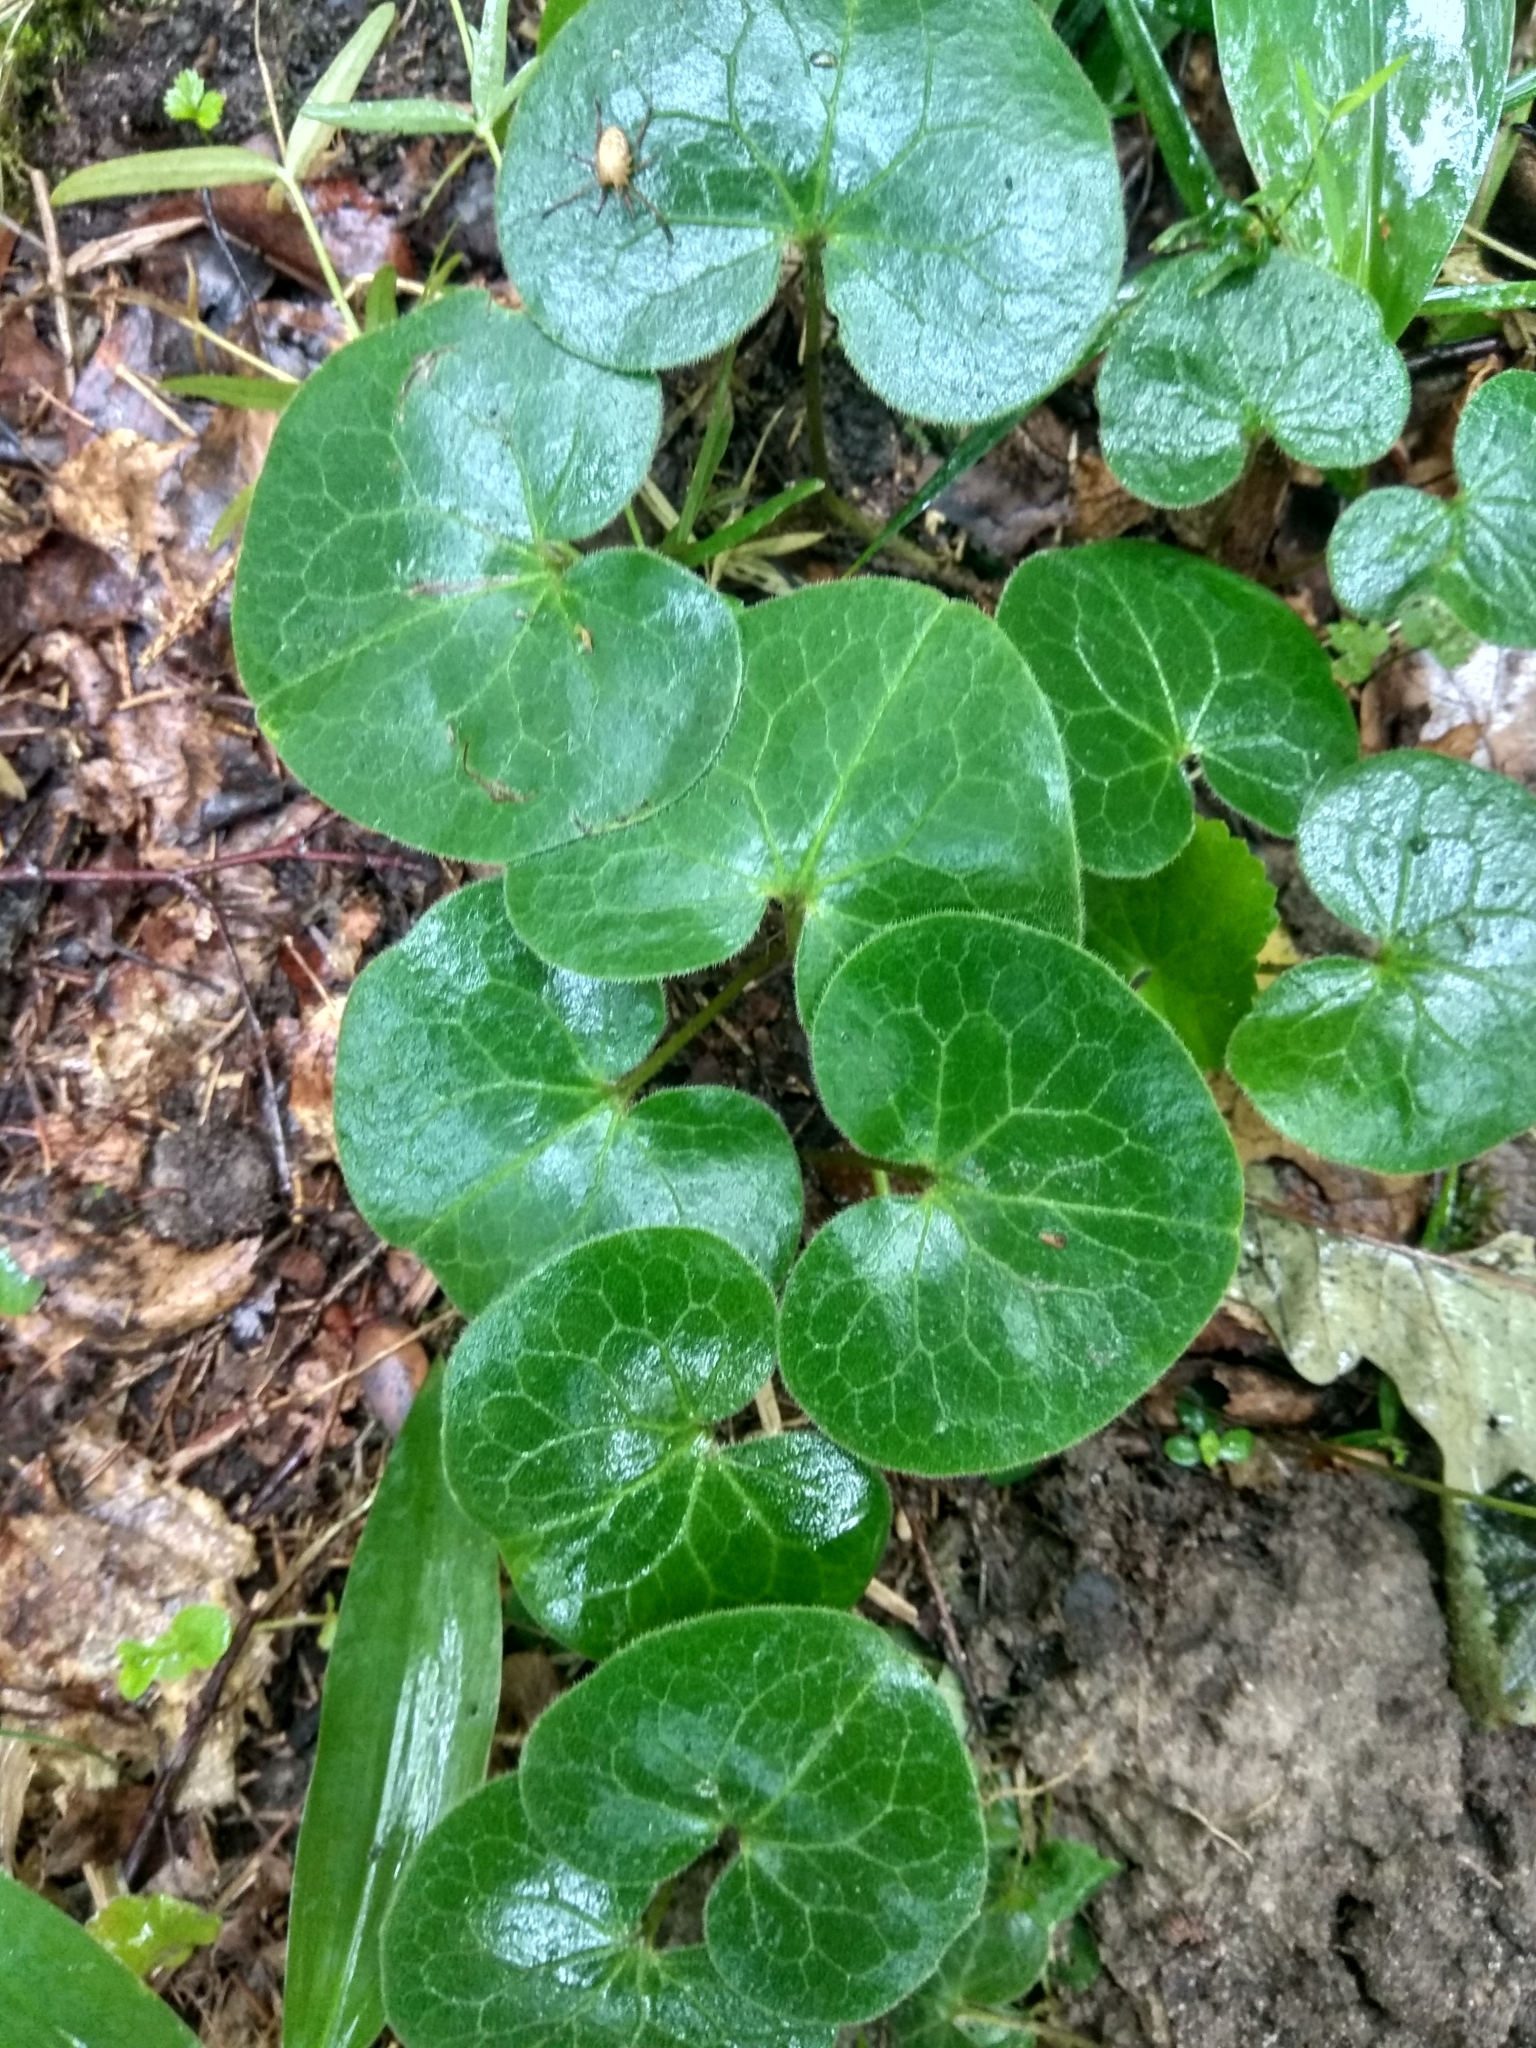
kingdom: Plantae
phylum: Tracheophyta
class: Magnoliopsida
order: Piperales
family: Aristolochiaceae
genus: Asarum
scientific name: Asarum europaeum
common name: Asarabacca
